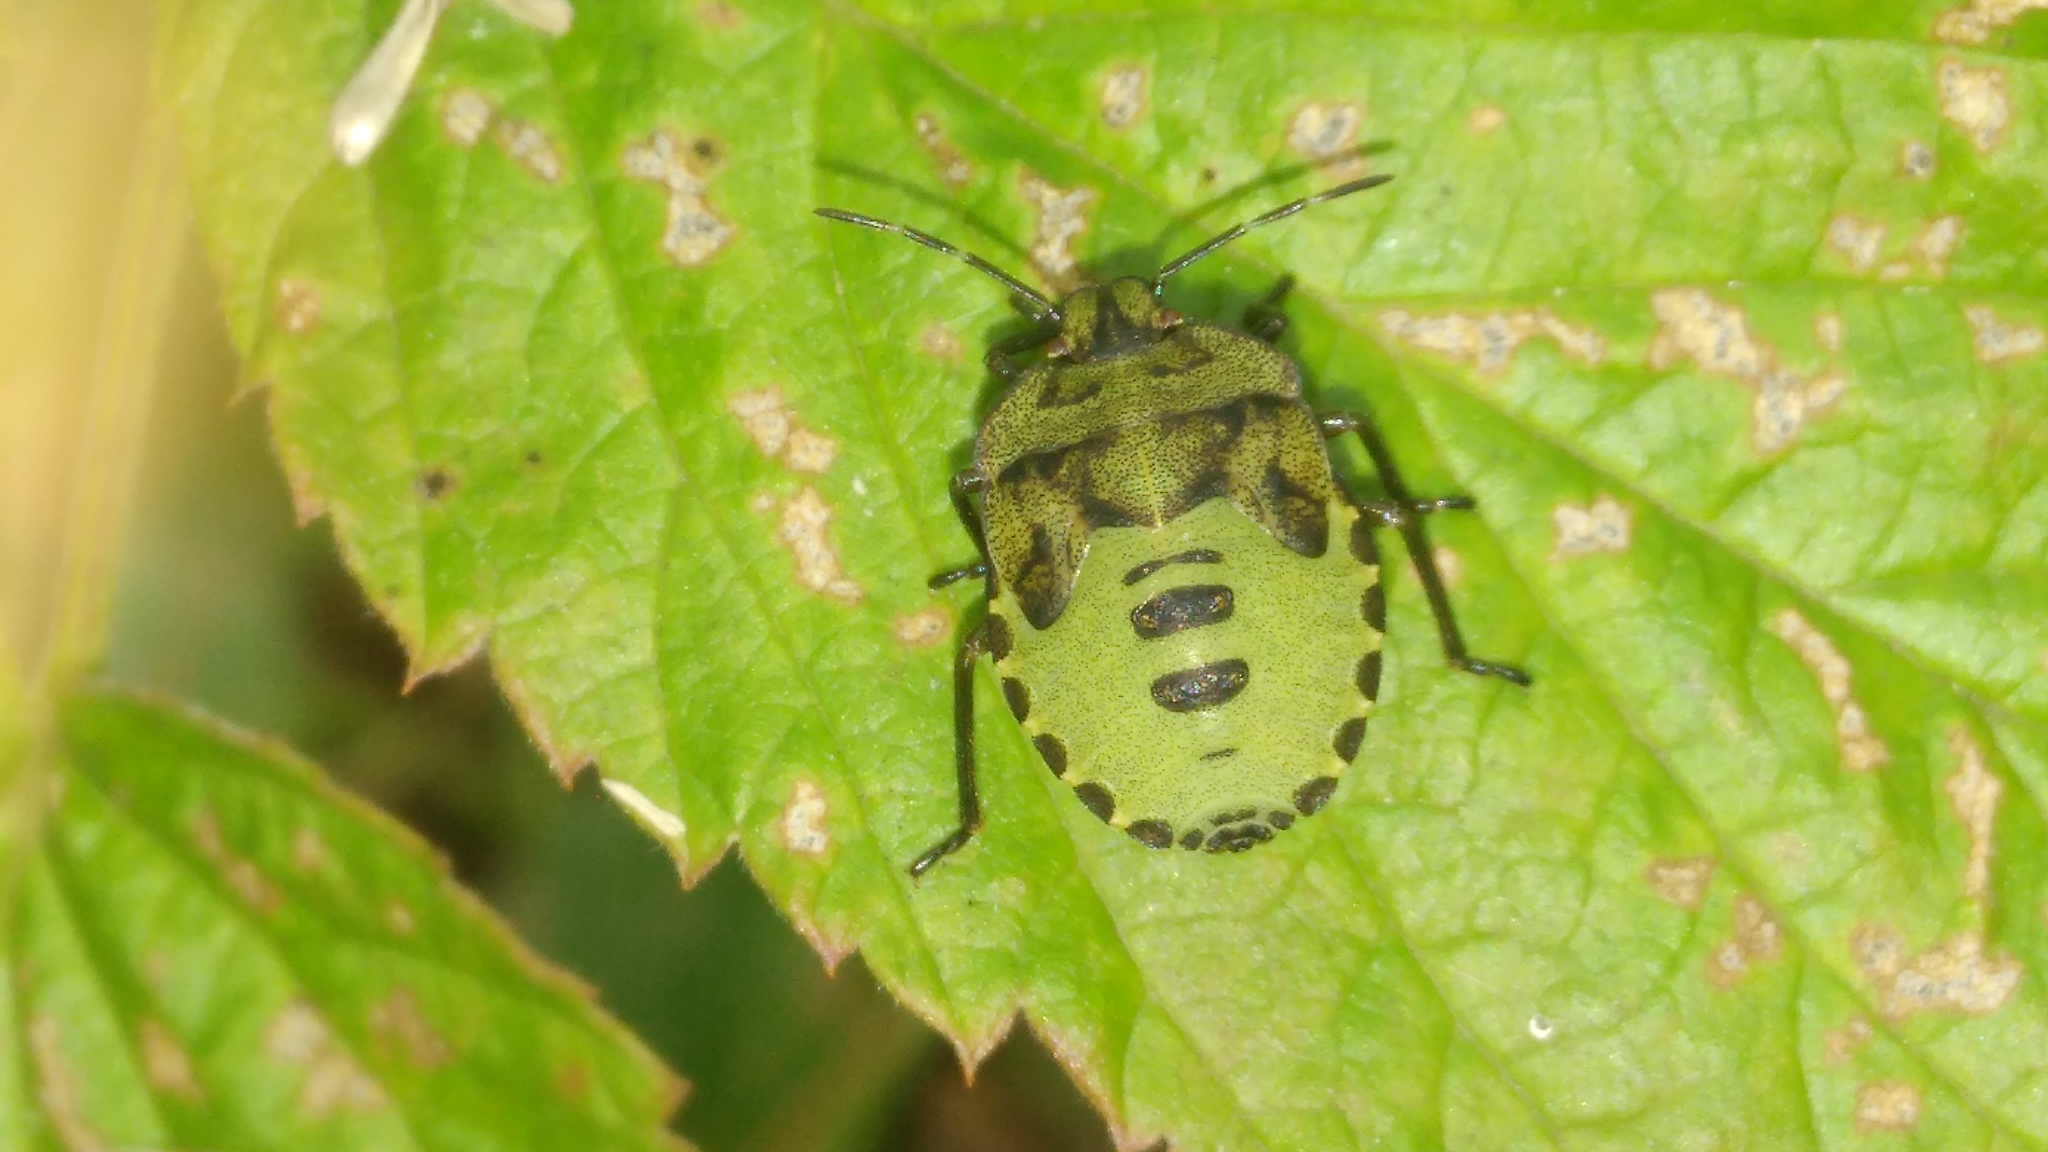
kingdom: Animalia
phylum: Arthropoda
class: Insecta
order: Hemiptera
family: Pentatomidae
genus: Palomena
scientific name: Palomena prasina
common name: Green shieldbug
